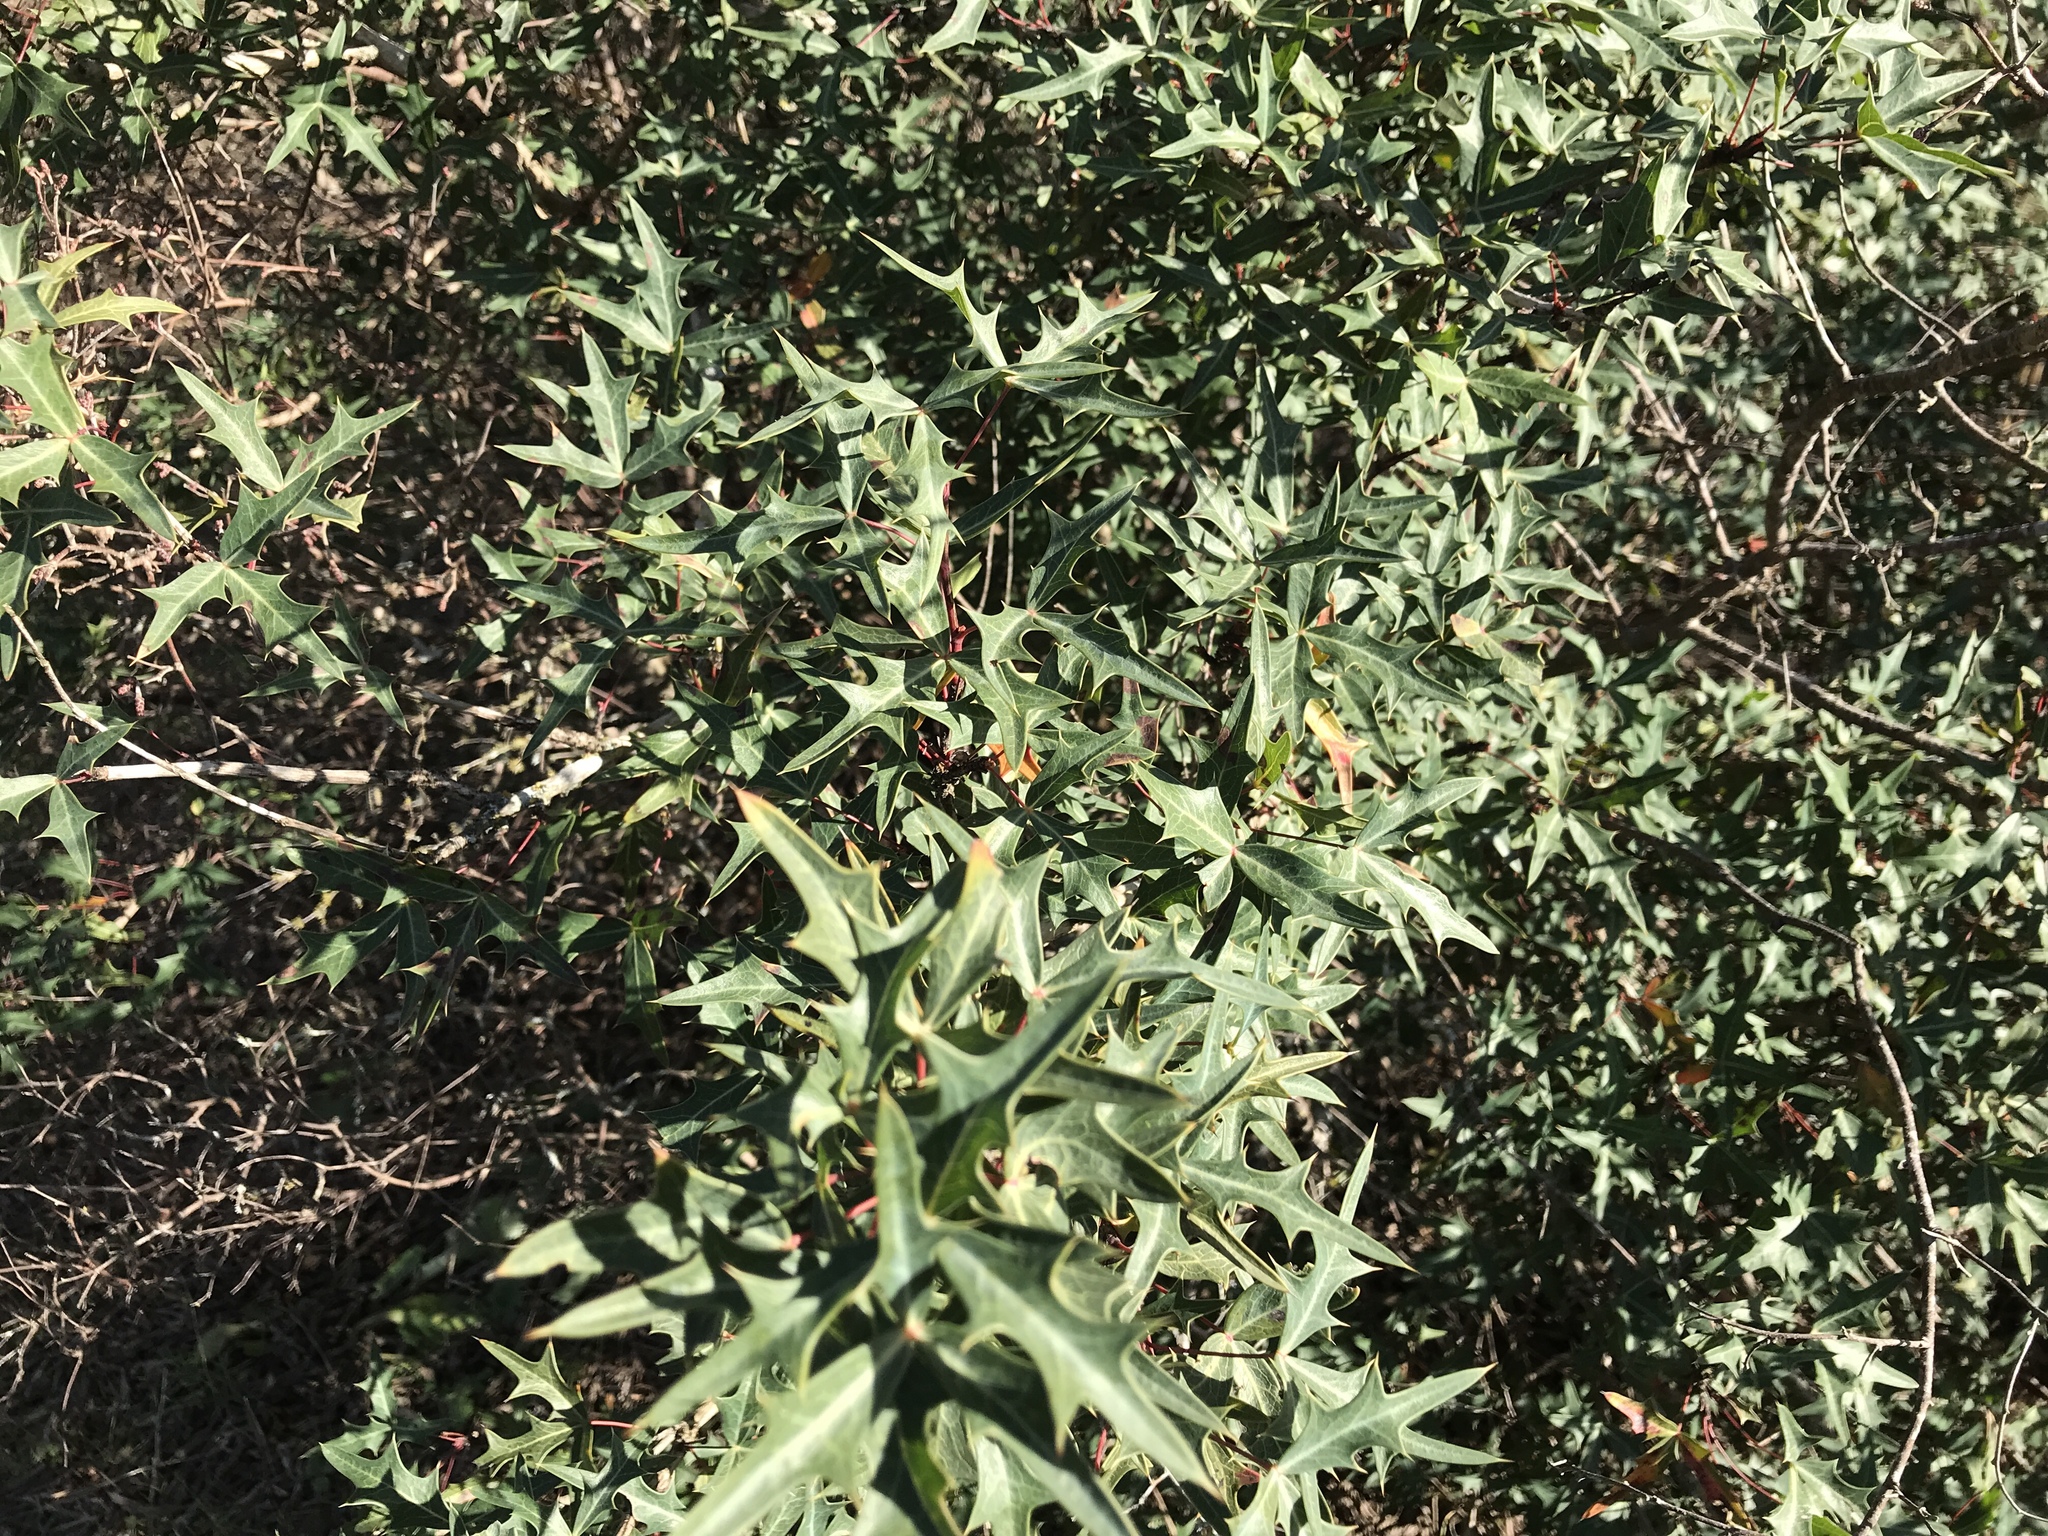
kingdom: Plantae
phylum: Tracheophyta
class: Magnoliopsida
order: Ranunculales
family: Berberidaceae
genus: Alloberberis
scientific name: Alloberberis trifoliolata
